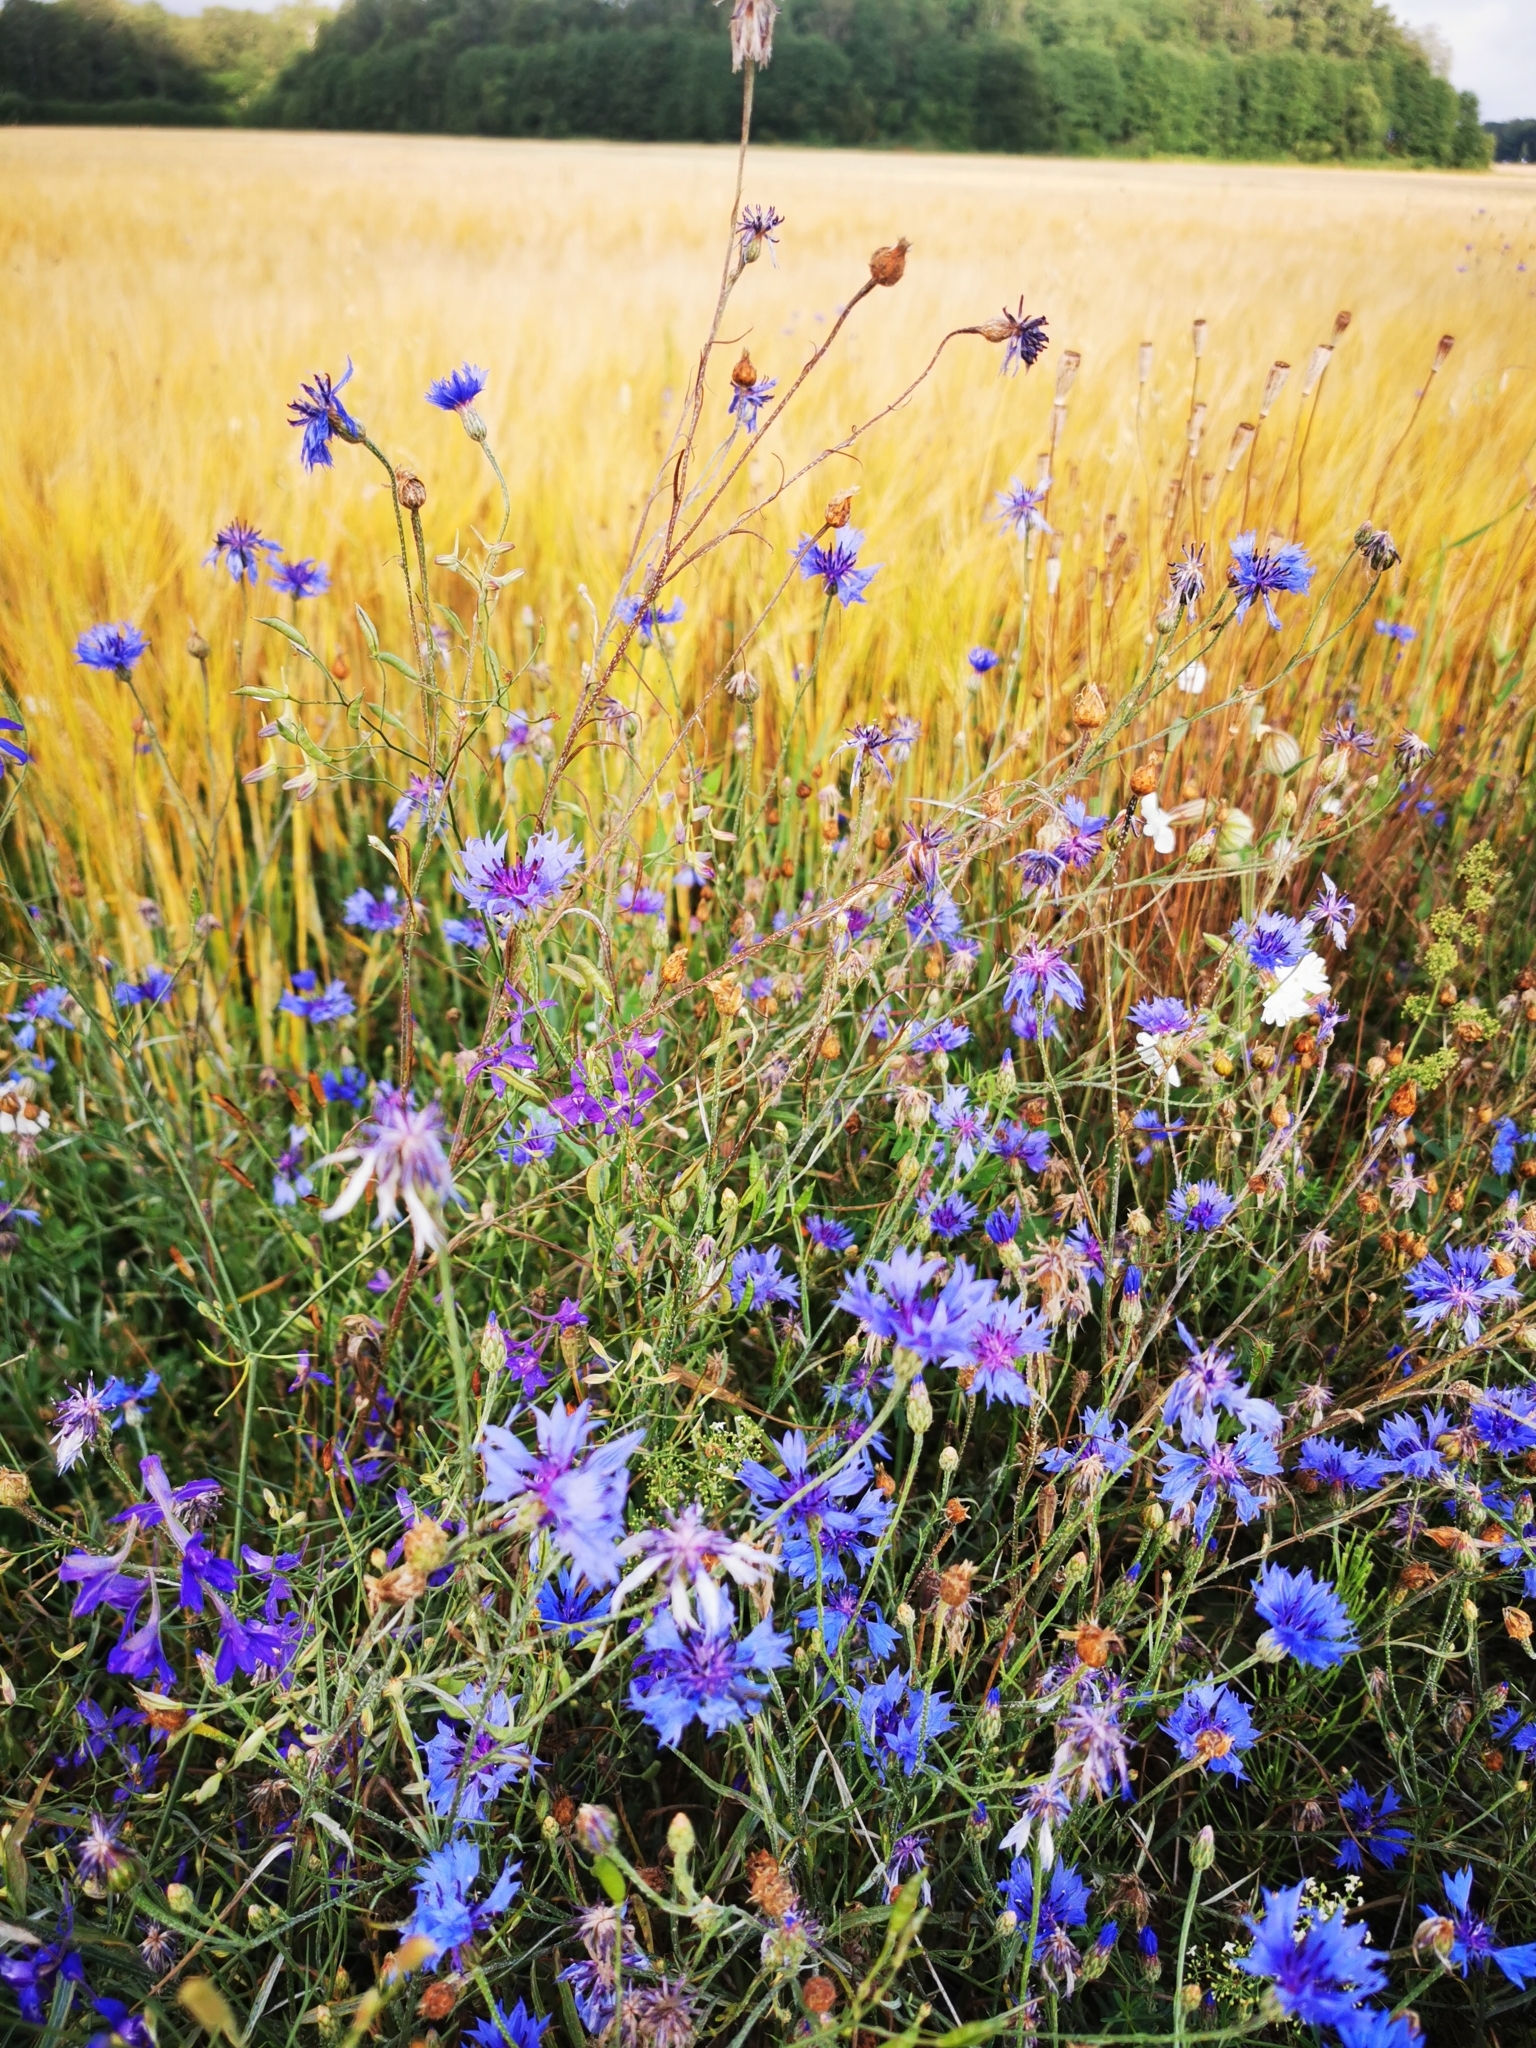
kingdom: Plantae
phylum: Tracheophyta
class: Magnoliopsida
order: Asterales
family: Asteraceae
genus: Centaurea
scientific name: Centaurea cyanus
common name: Cornflower
